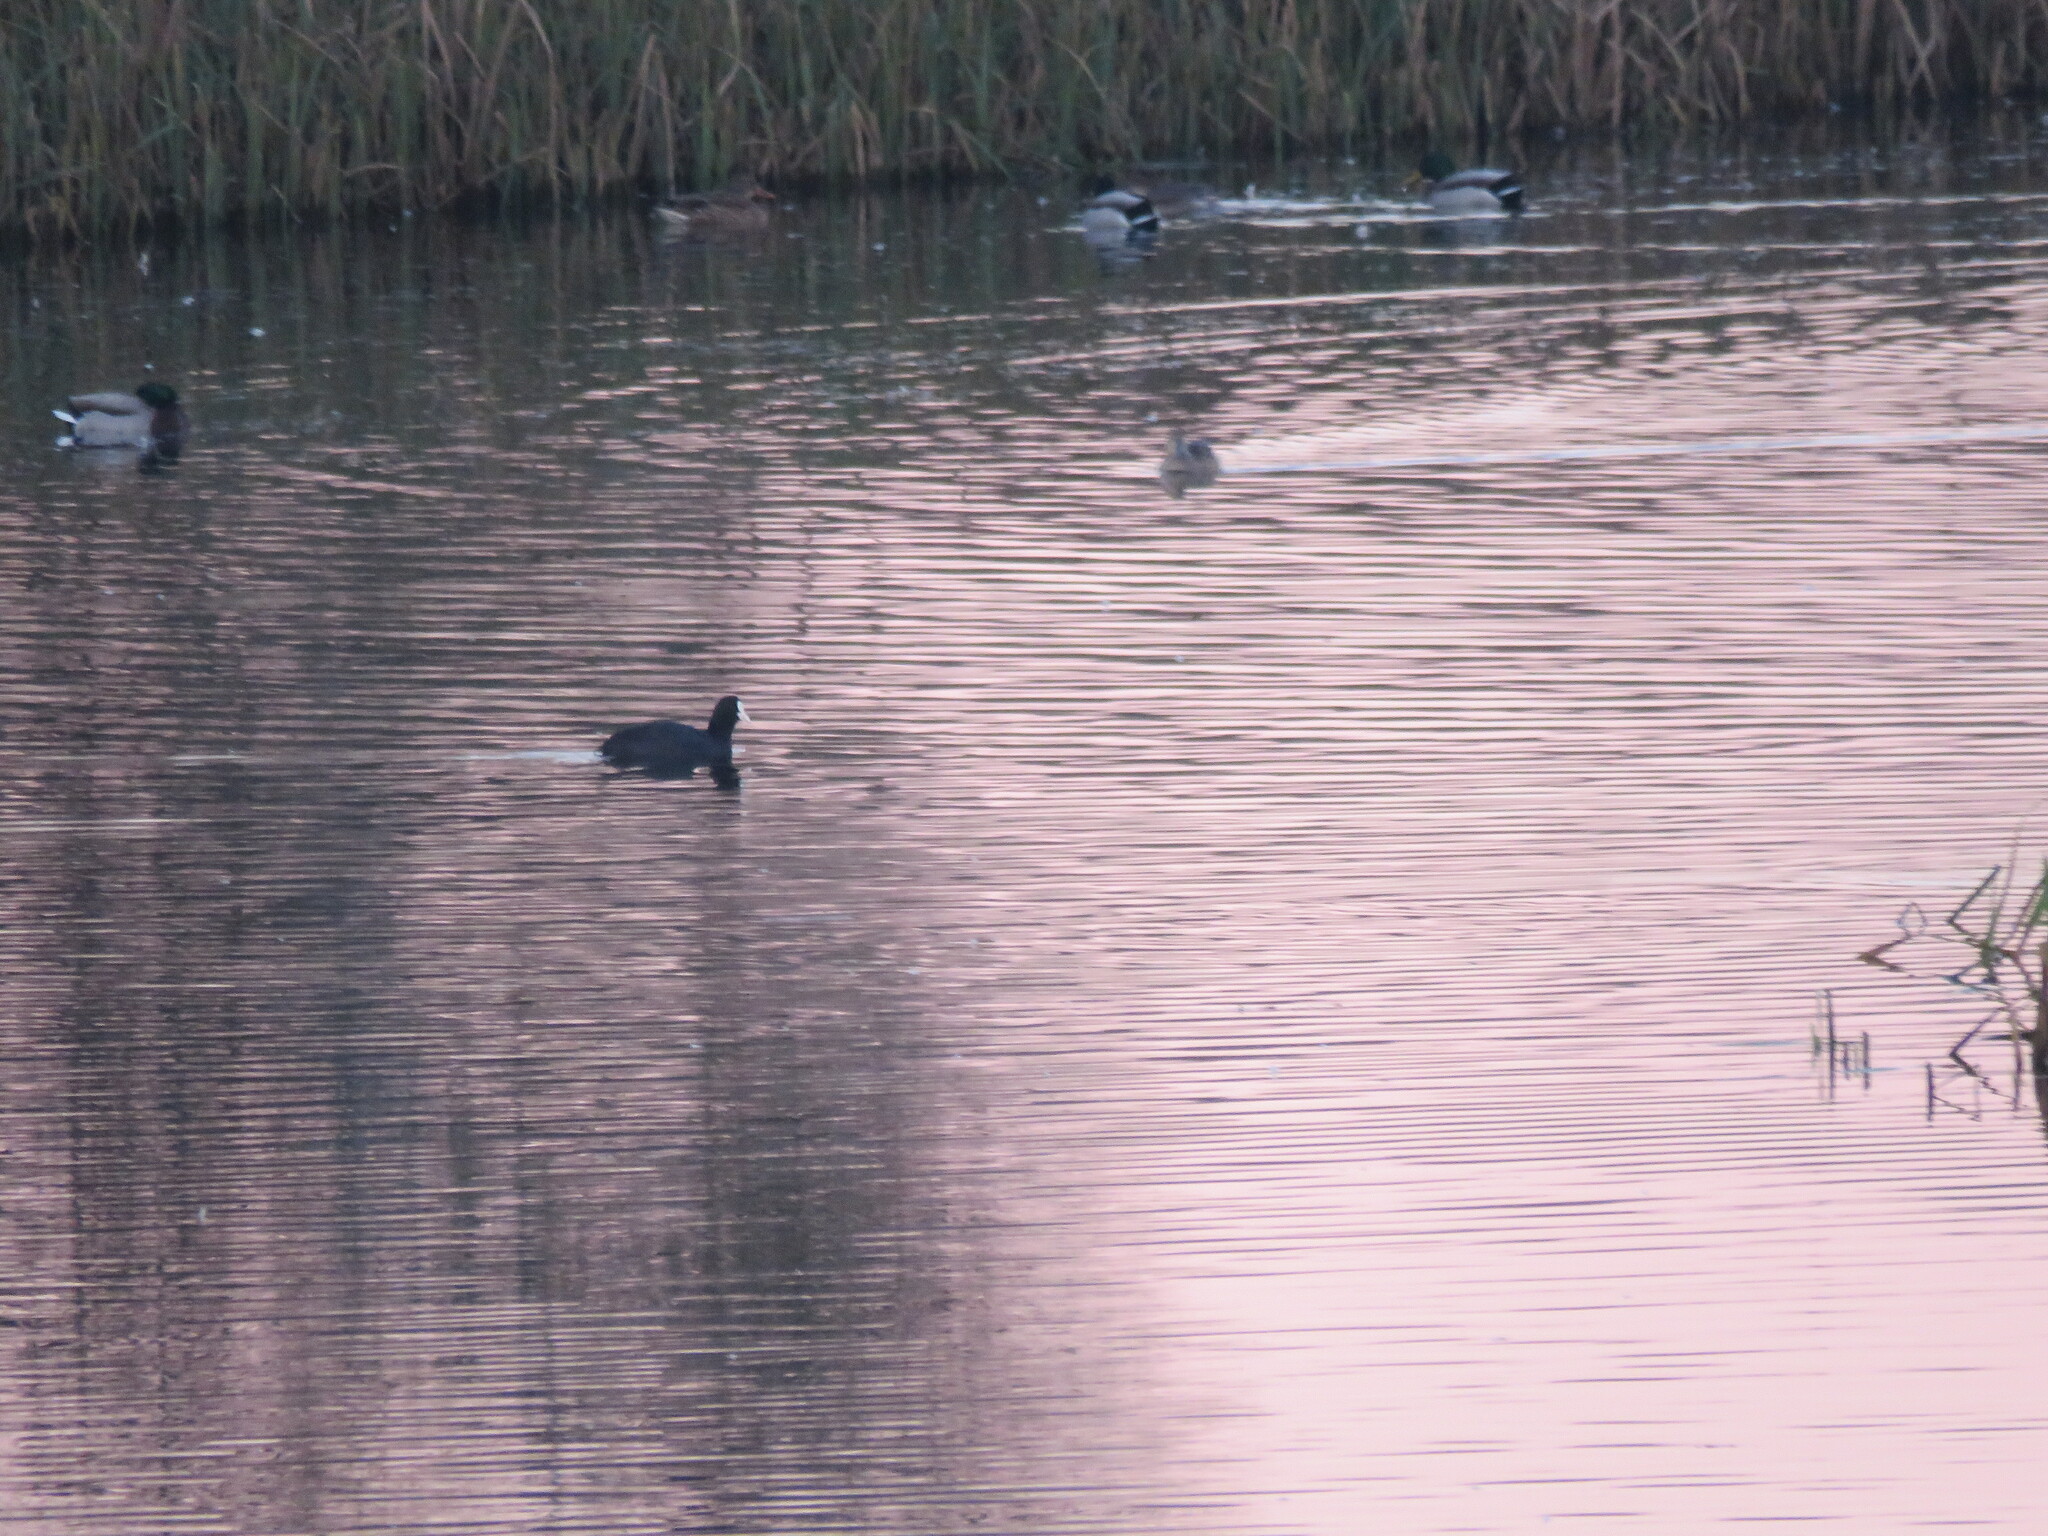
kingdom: Animalia
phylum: Chordata
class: Aves
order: Gruiformes
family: Rallidae
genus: Fulica
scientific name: Fulica atra
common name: Eurasian coot
